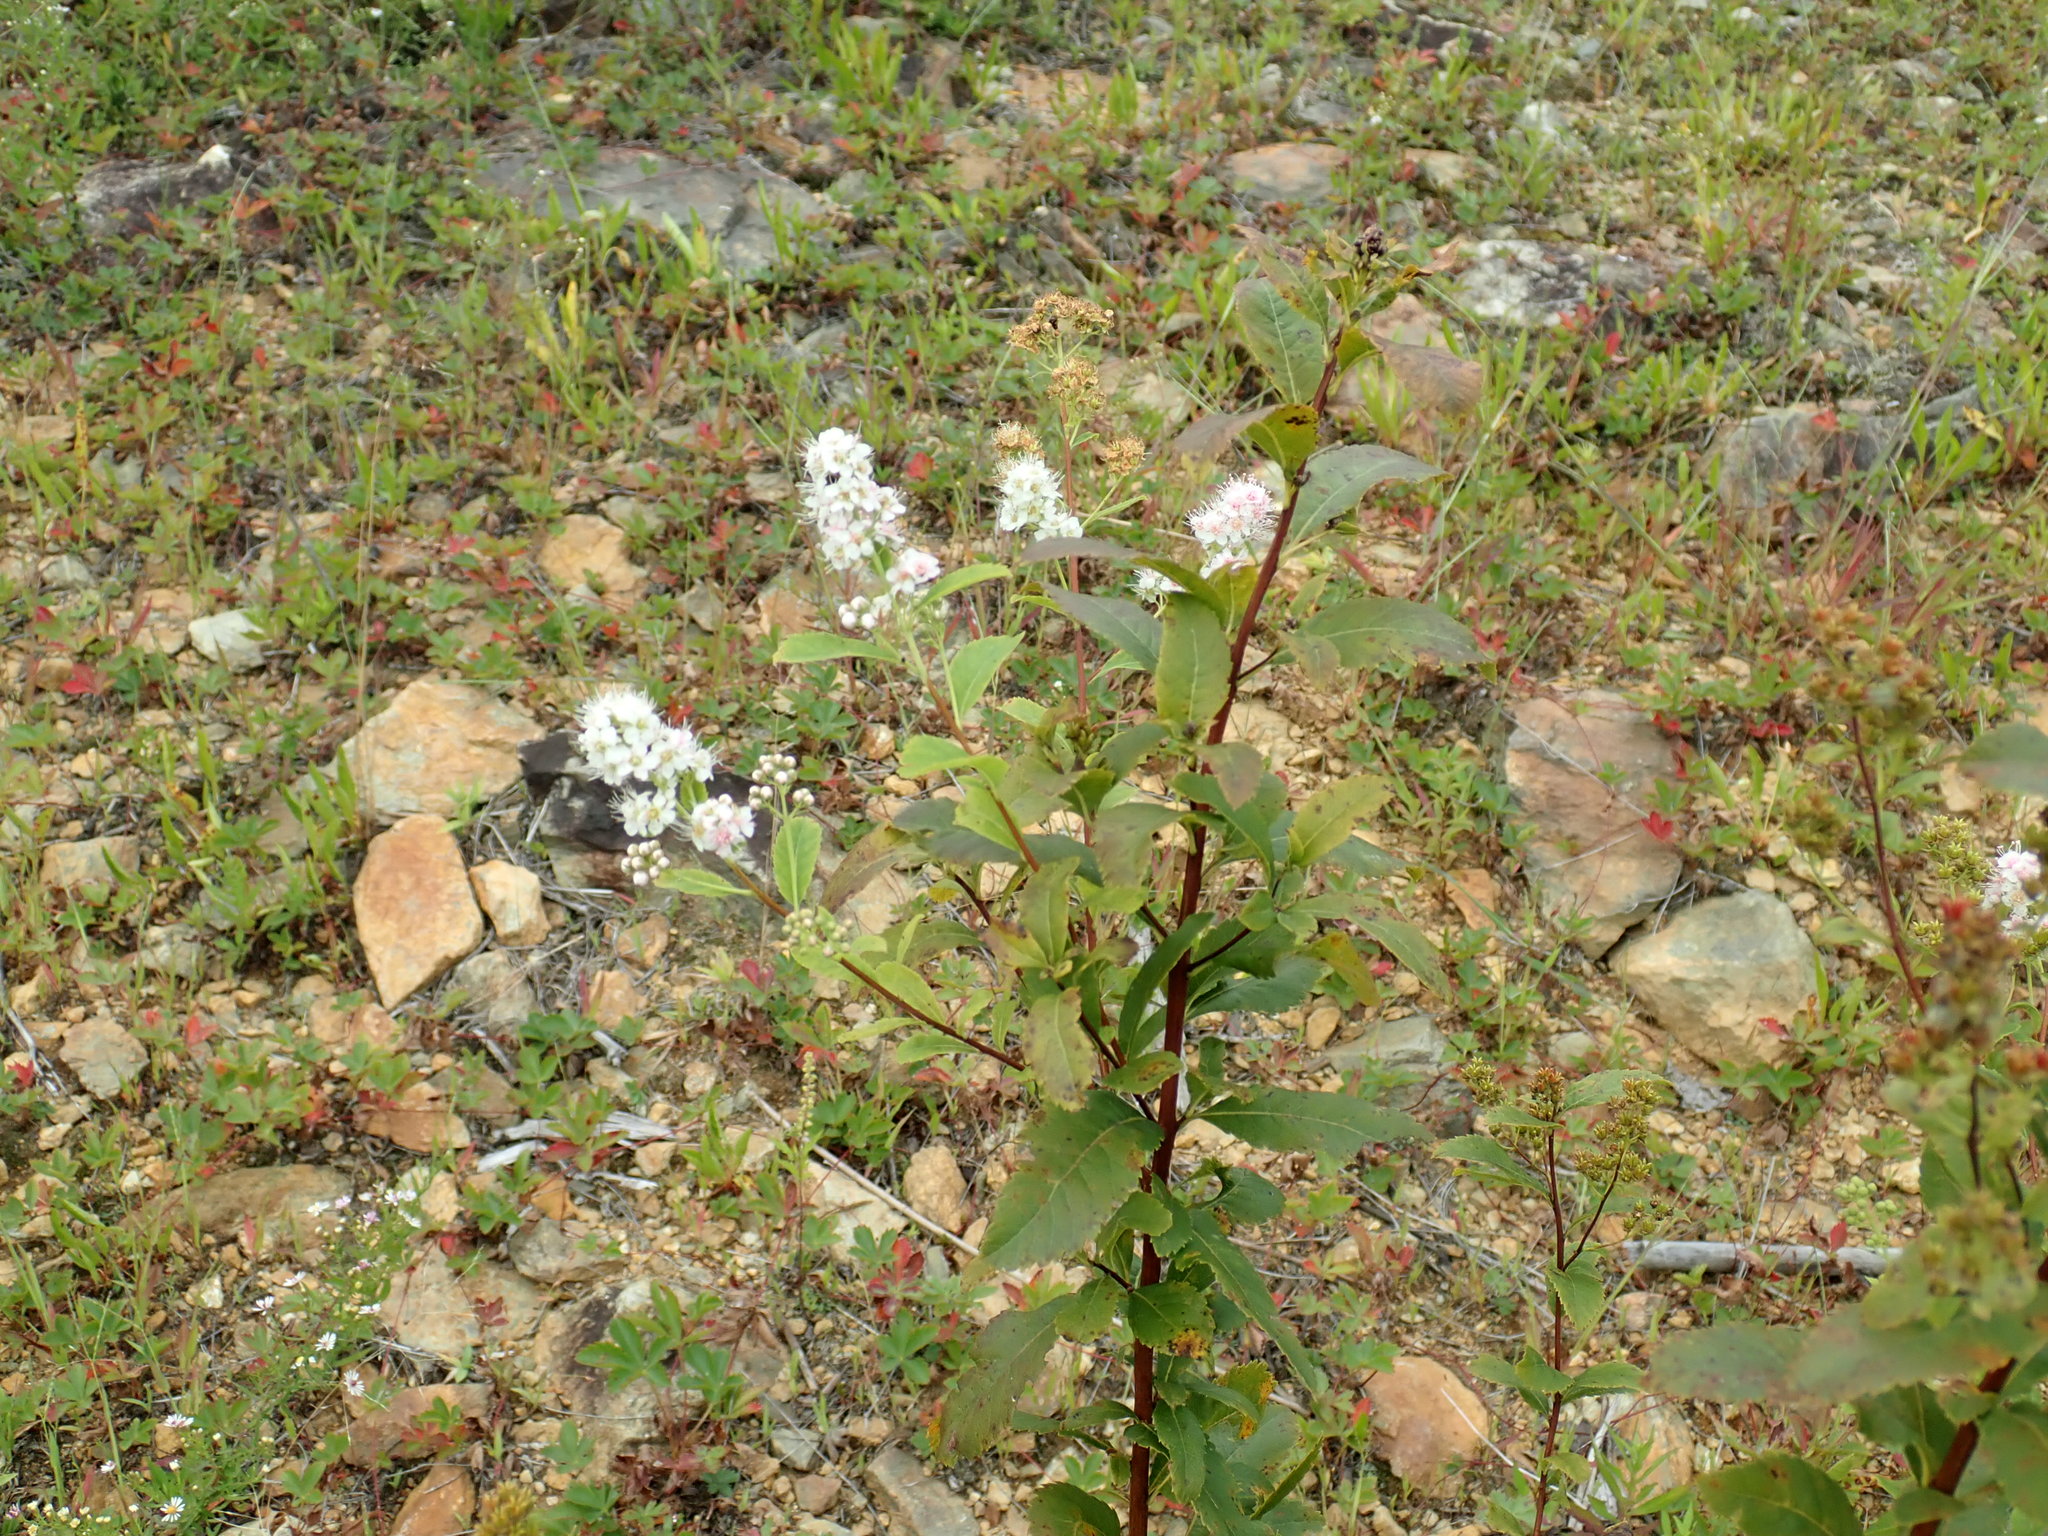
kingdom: Plantae
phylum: Tracheophyta
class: Magnoliopsida
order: Rosales
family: Rosaceae
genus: Spiraea
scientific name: Spiraea alba
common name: Pale bridewort
